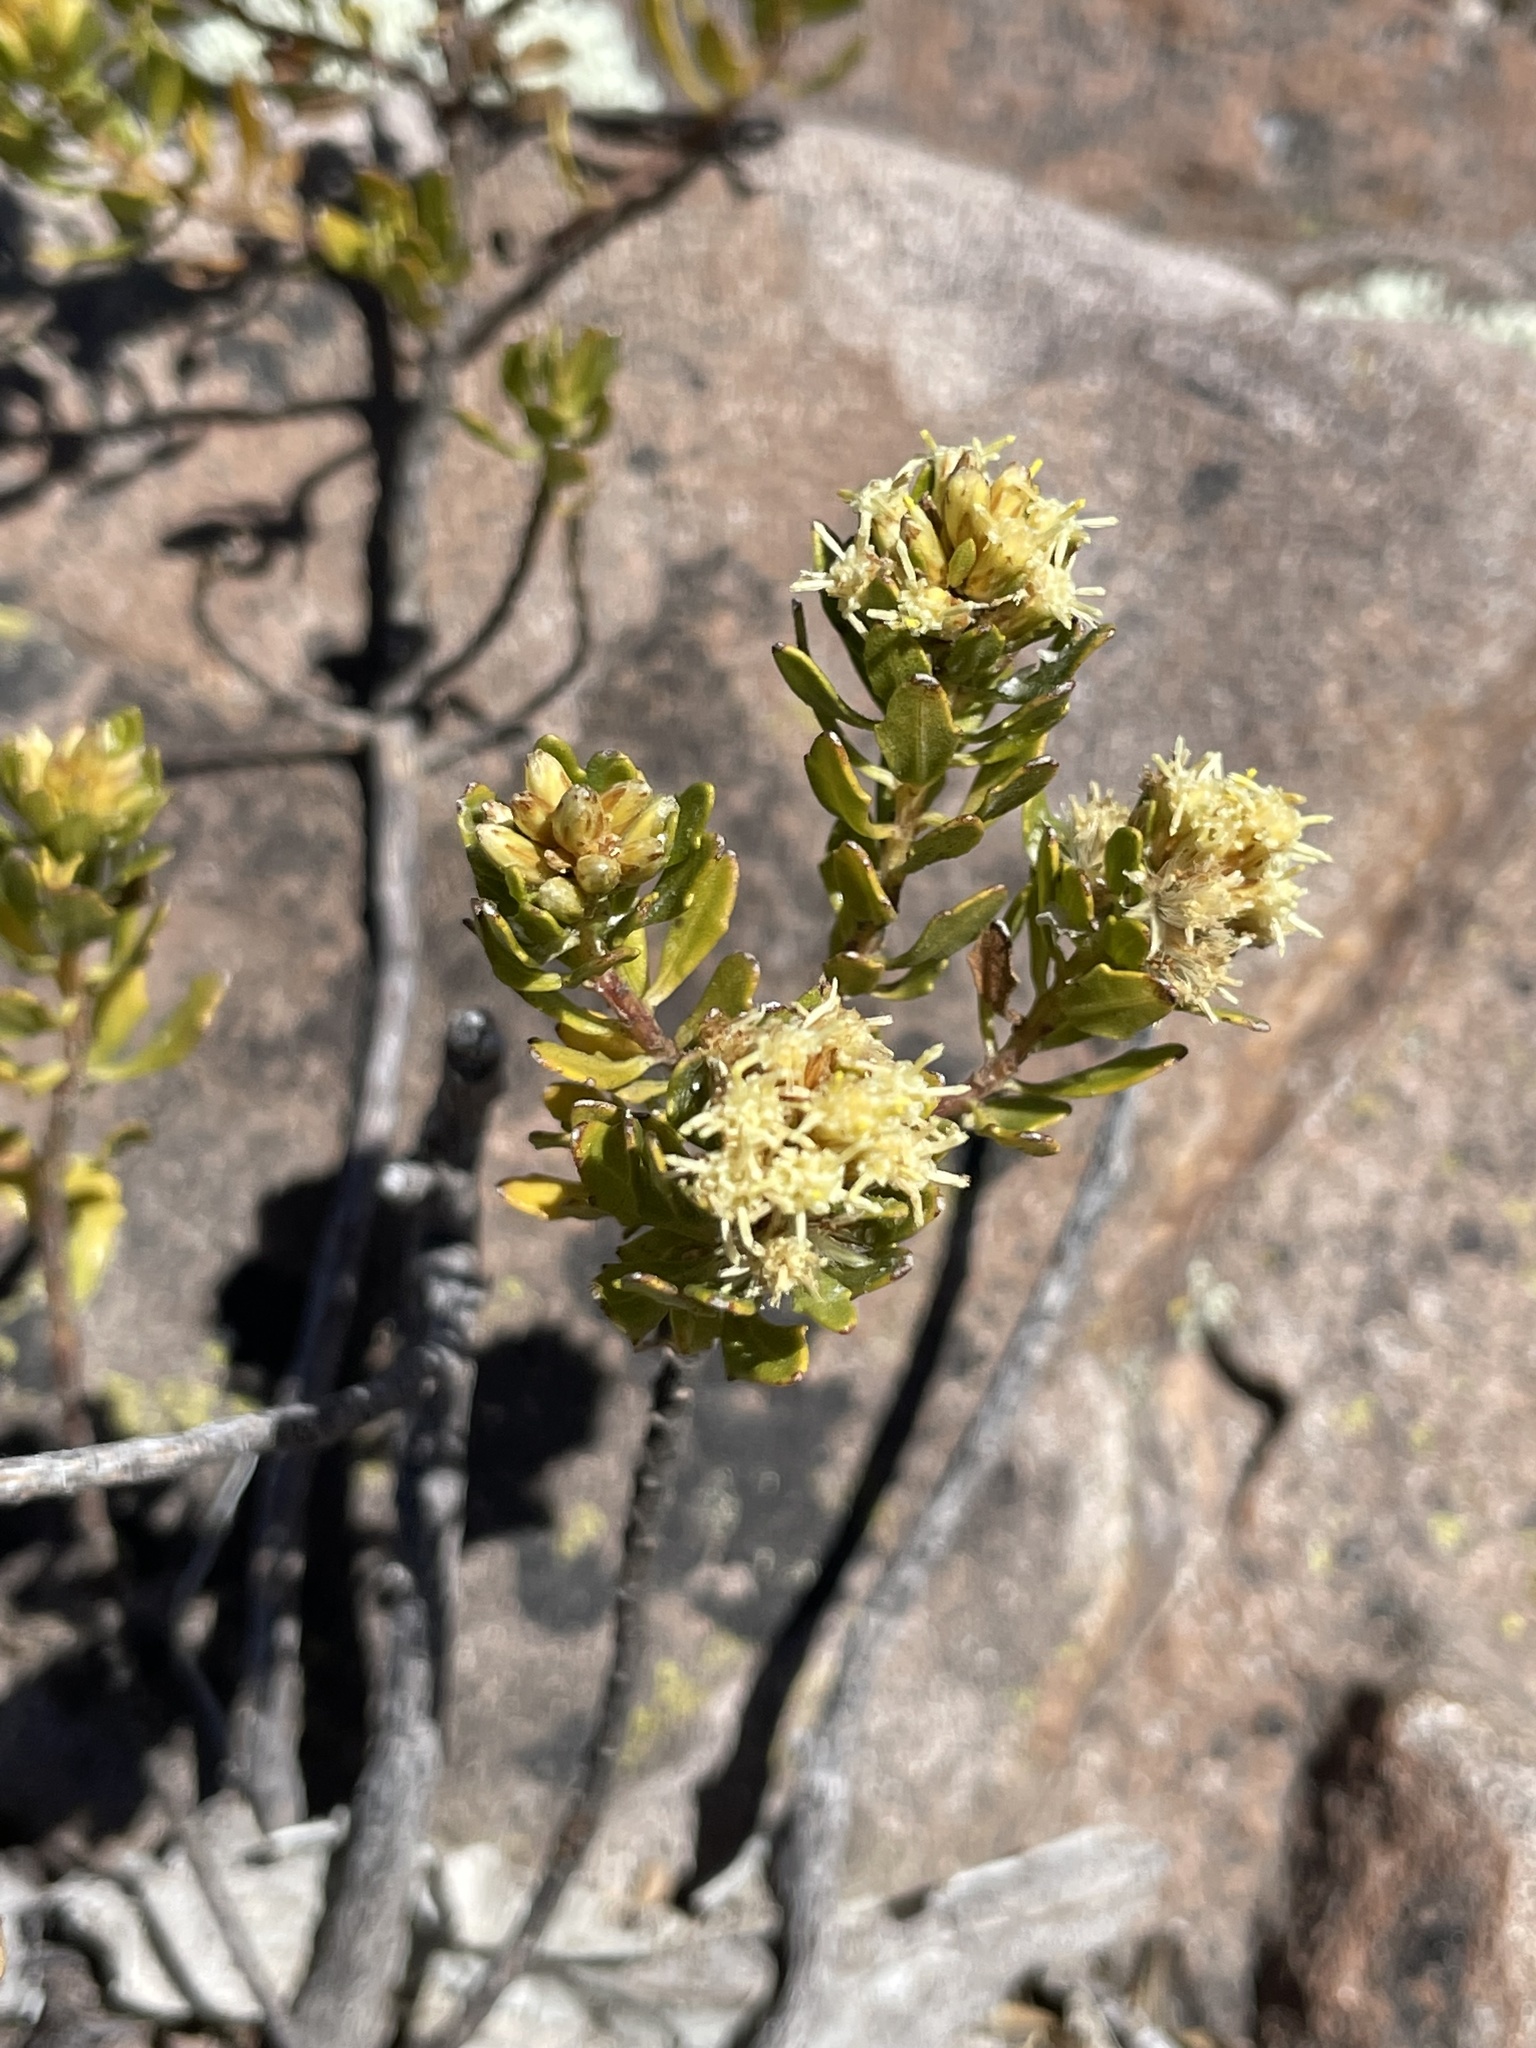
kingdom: Plantae
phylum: Tracheophyta
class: Magnoliopsida
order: Asterales
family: Asteraceae
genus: Baccharis
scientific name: Baccharis buxifolia
